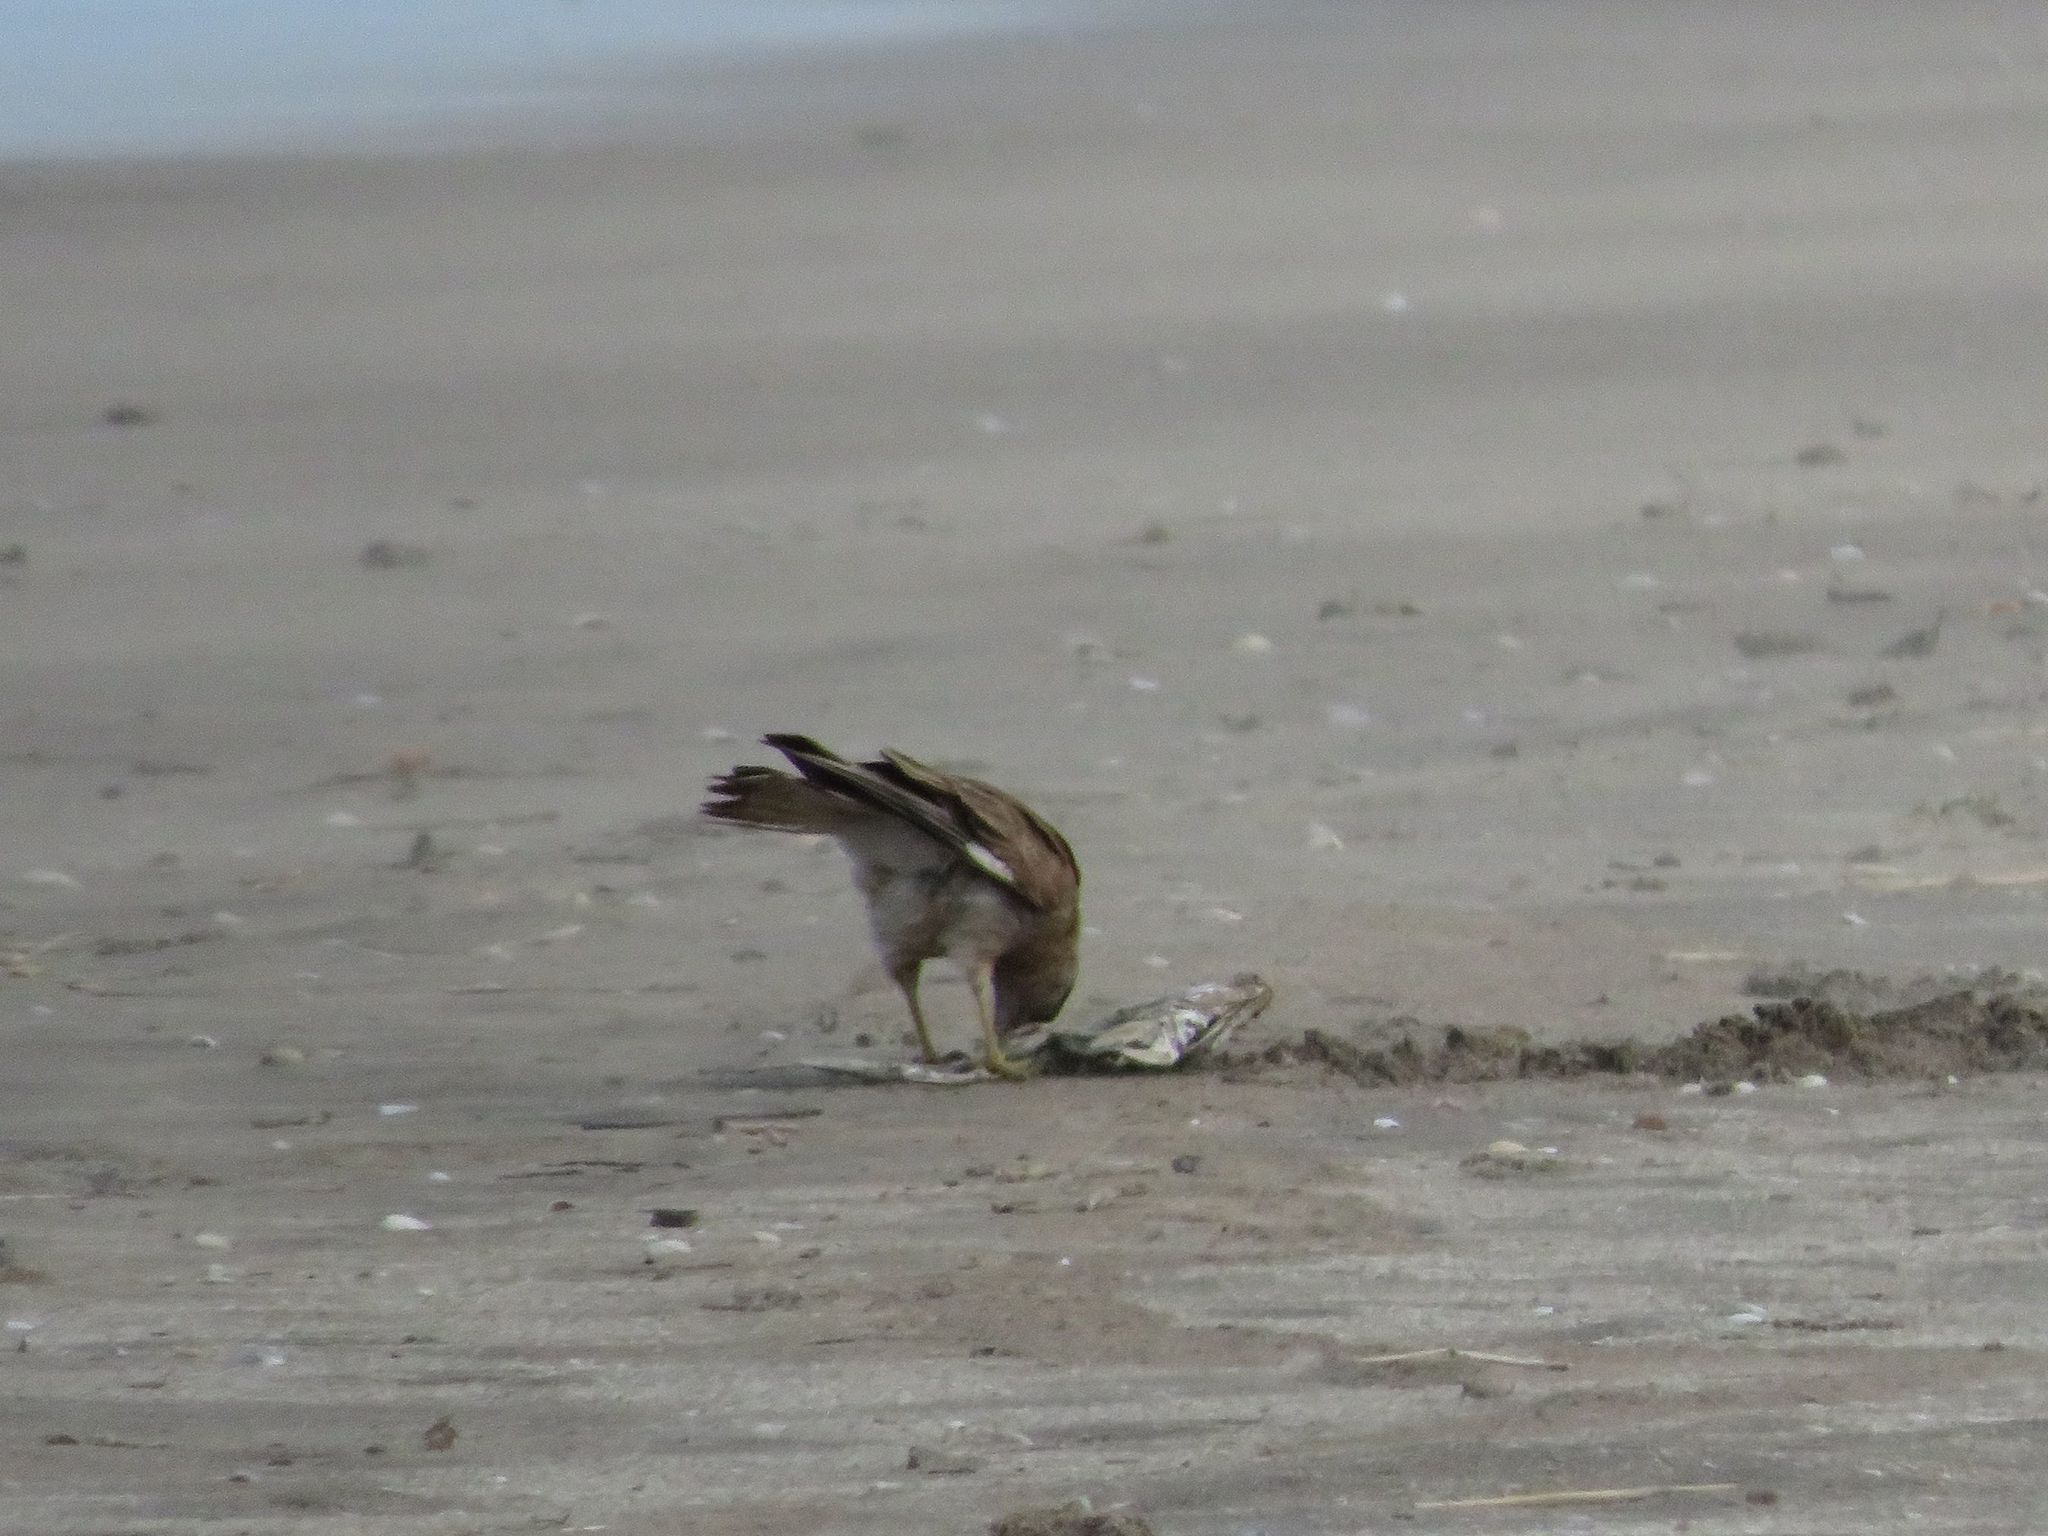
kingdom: Animalia
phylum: Chordata
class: Aves
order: Falconiformes
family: Falconidae
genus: Daptrius
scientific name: Daptrius
